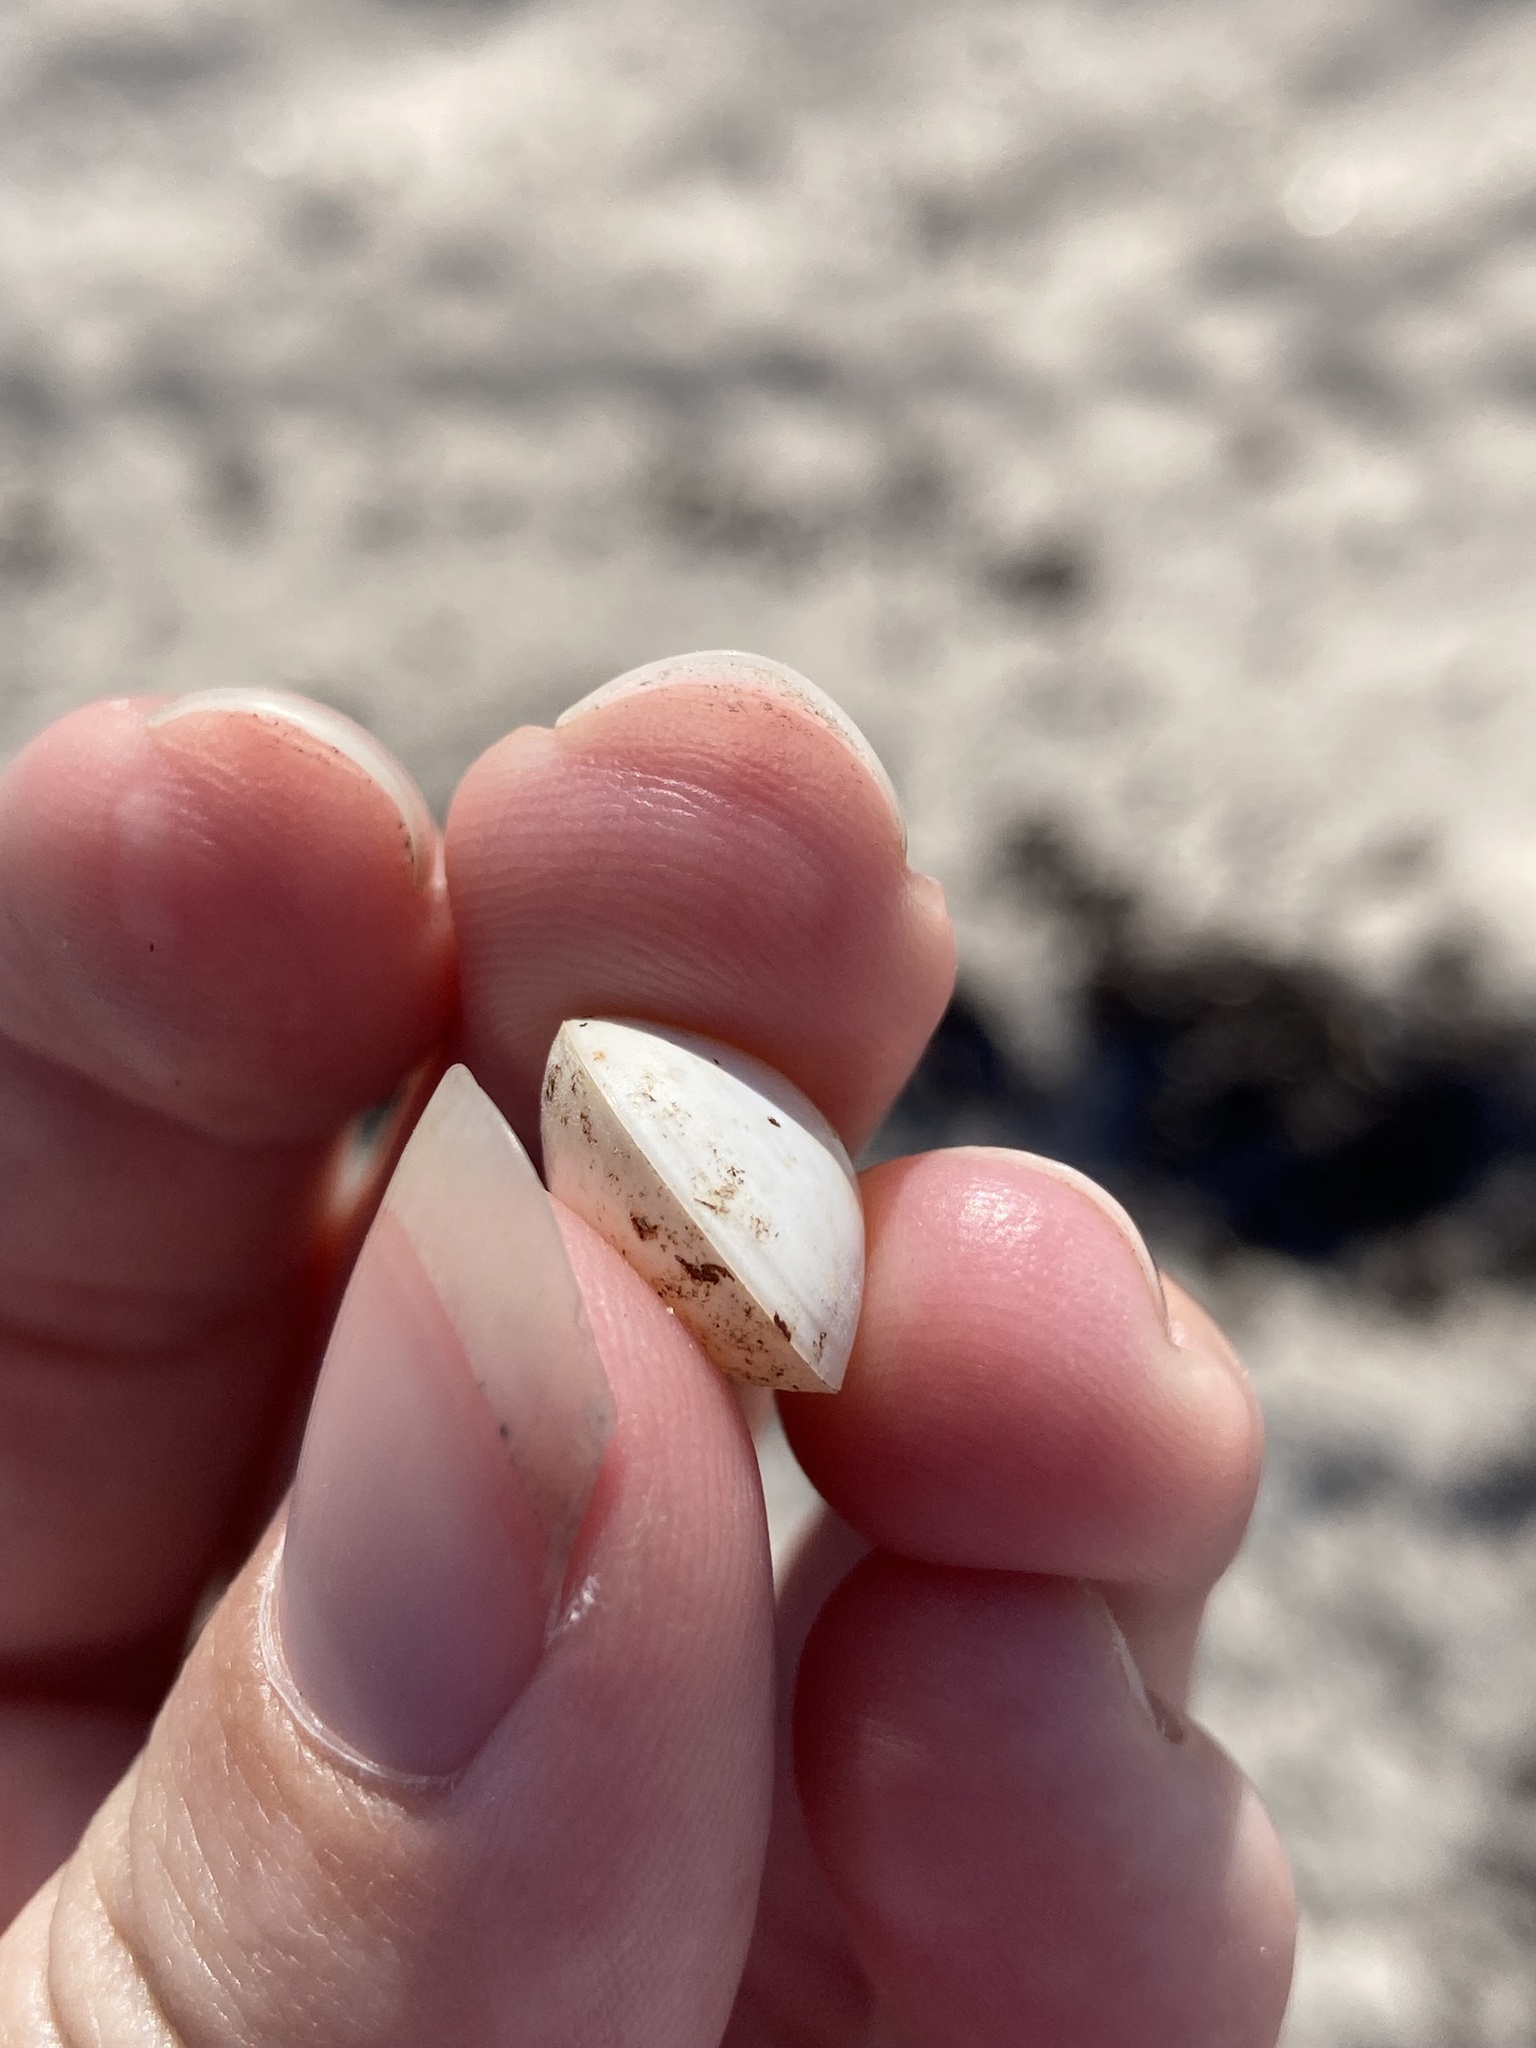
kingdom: Animalia
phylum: Mollusca
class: Bivalvia
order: Cardiida
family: Cardiidae
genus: Laevicardium
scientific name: Laevicardium mortoni
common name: Morton eggcockle
